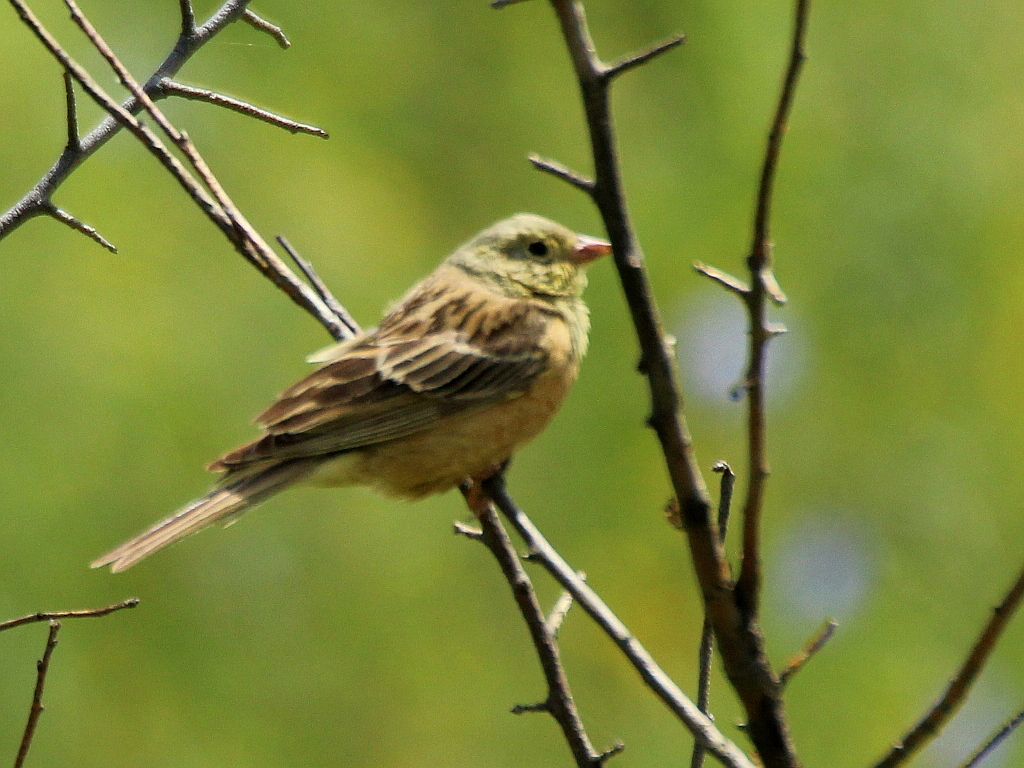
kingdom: Animalia
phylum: Chordata
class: Aves
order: Passeriformes
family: Emberizidae
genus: Emberiza
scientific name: Emberiza hortulana
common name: Ortolan bunting
